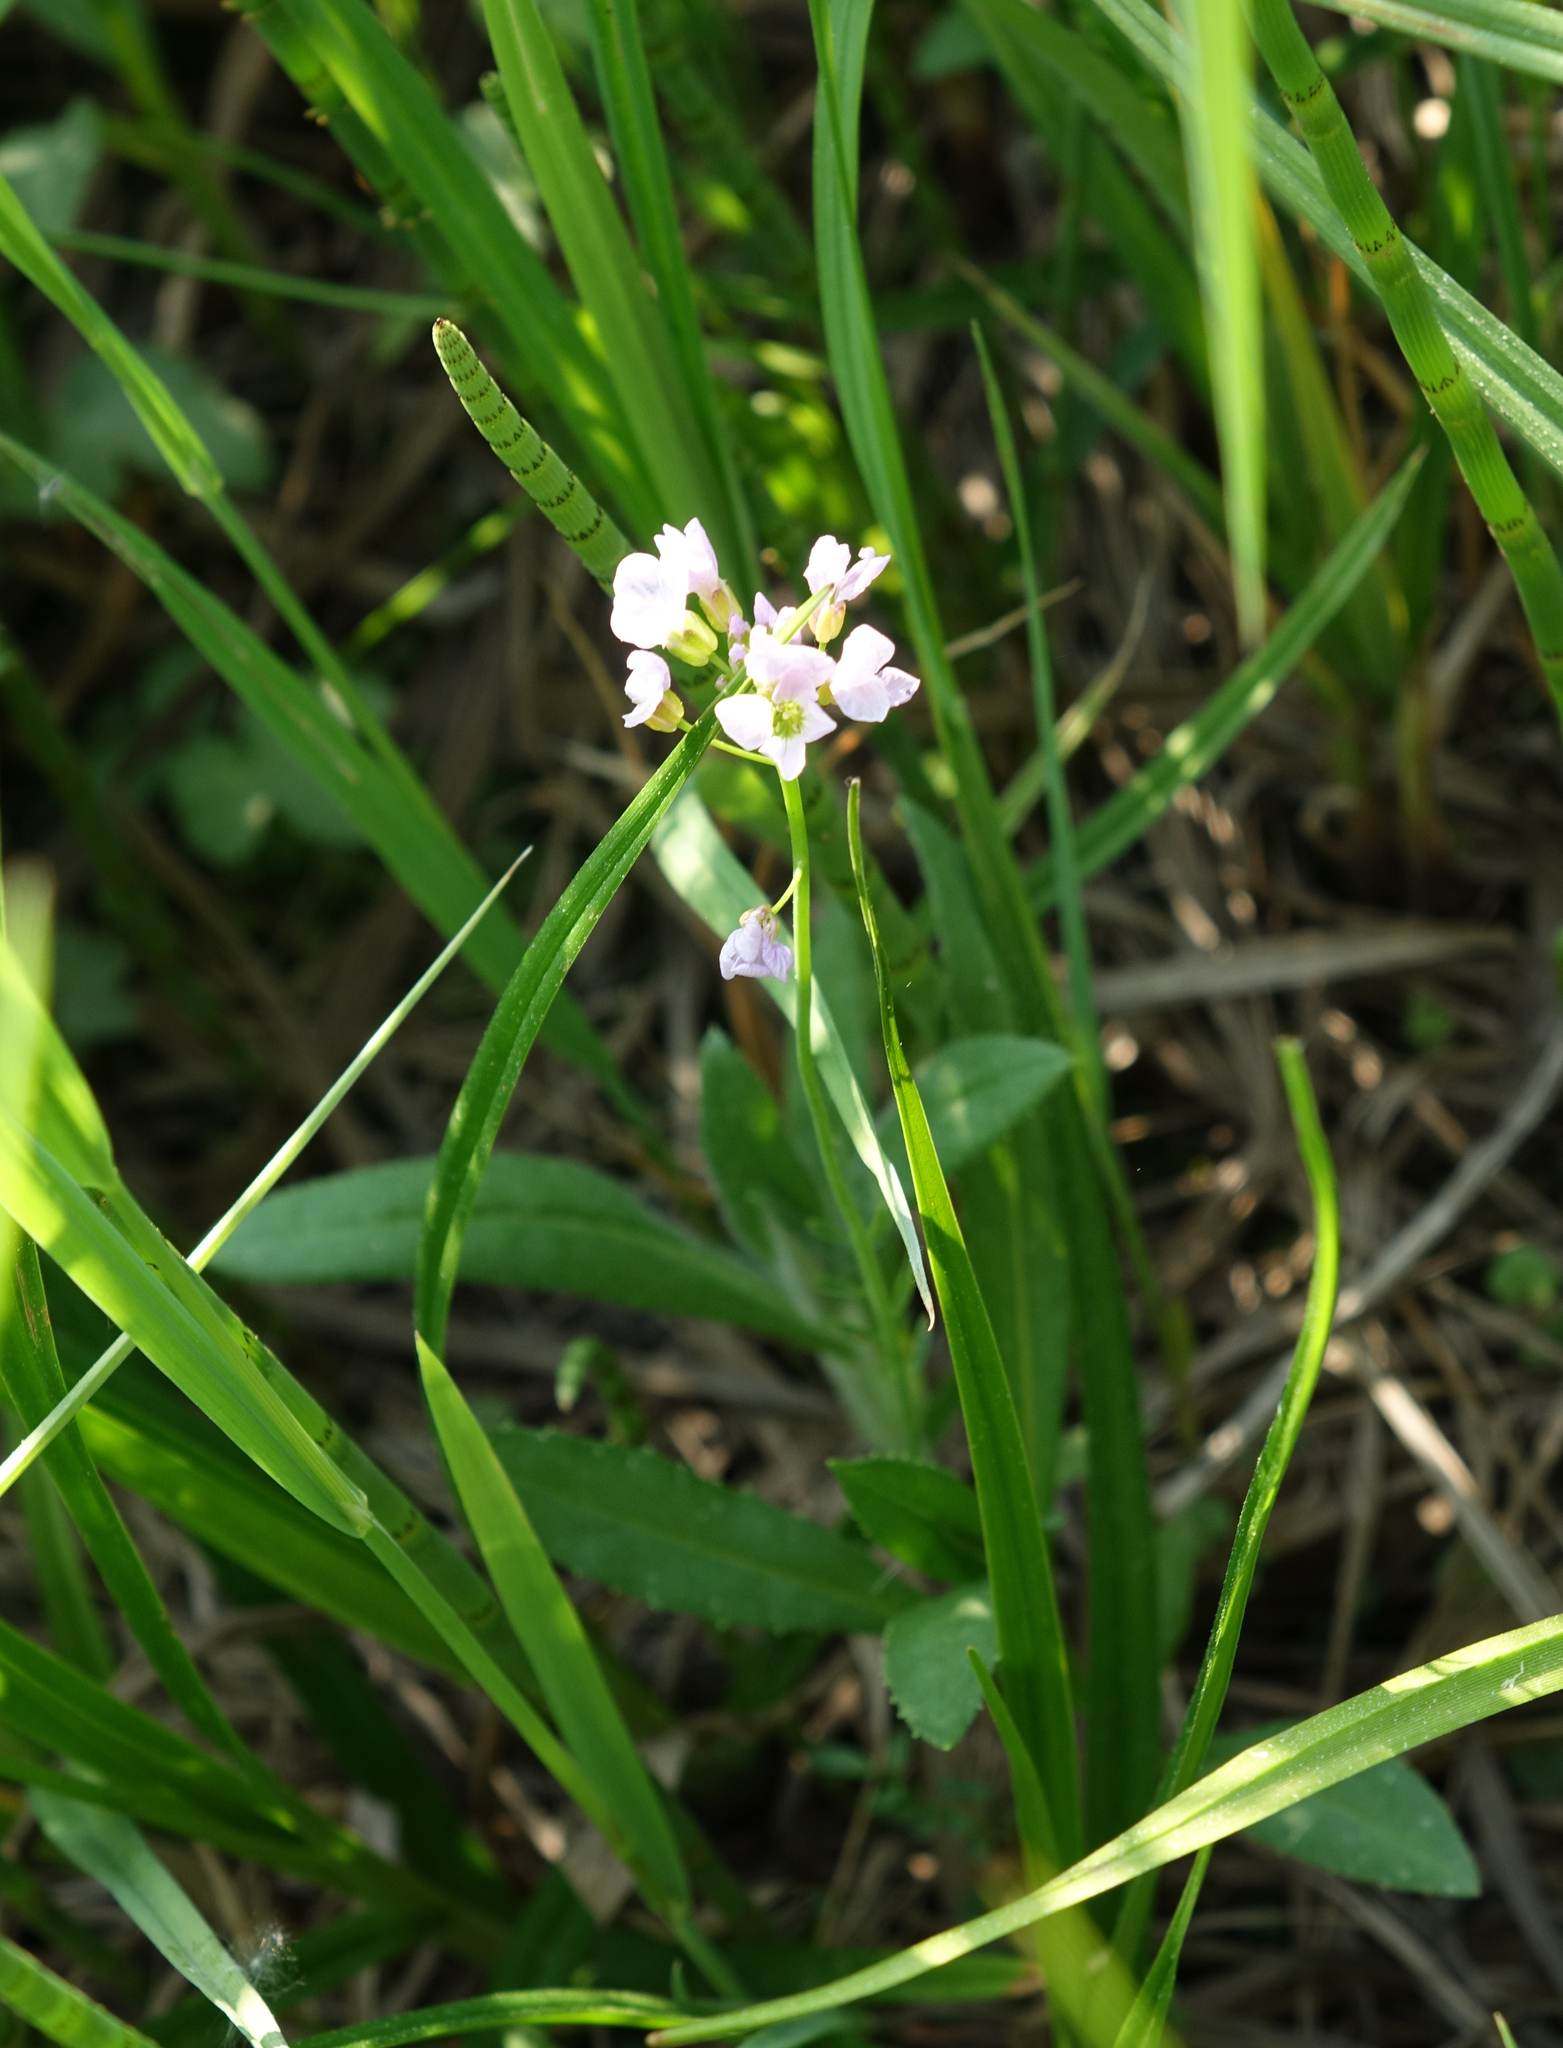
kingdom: Plantae
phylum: Tracheophyta
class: Magnoliopsida
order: Brassicales
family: Brassicaceae
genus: Cardamine
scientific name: Cardamine pratensis
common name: Cuckoo flower
